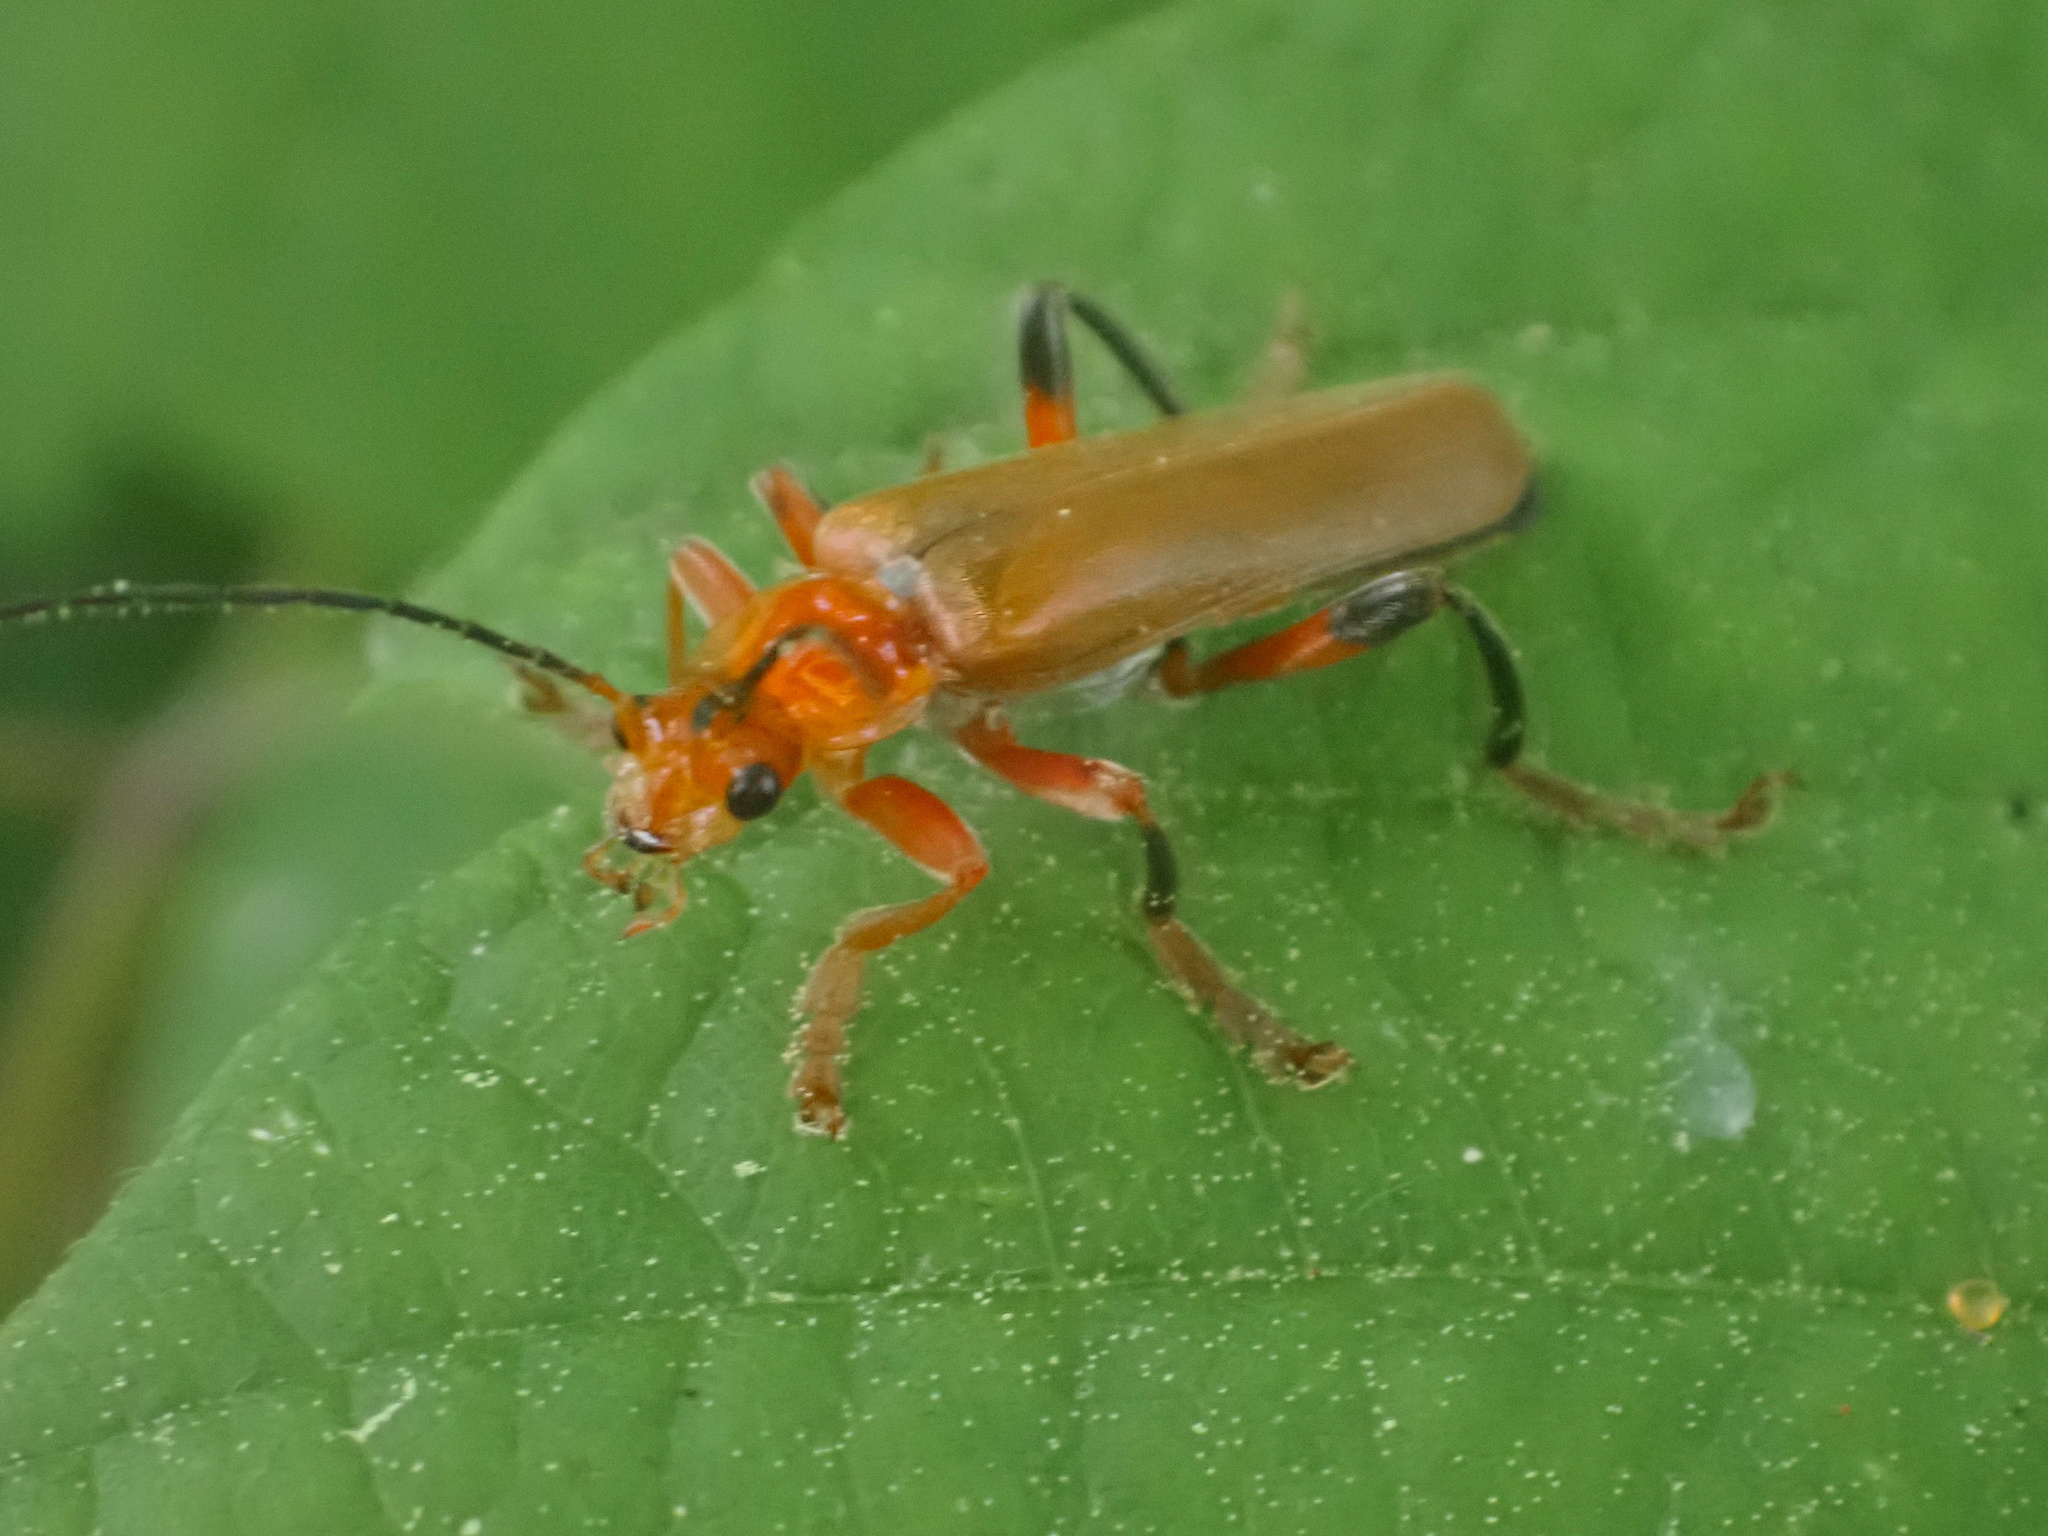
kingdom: Animalia
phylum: Arthropoda
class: Insecta
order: Coleoptera
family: Cantharidae
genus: Cantharis
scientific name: Cantharis livida
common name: Livid soldier beetle
